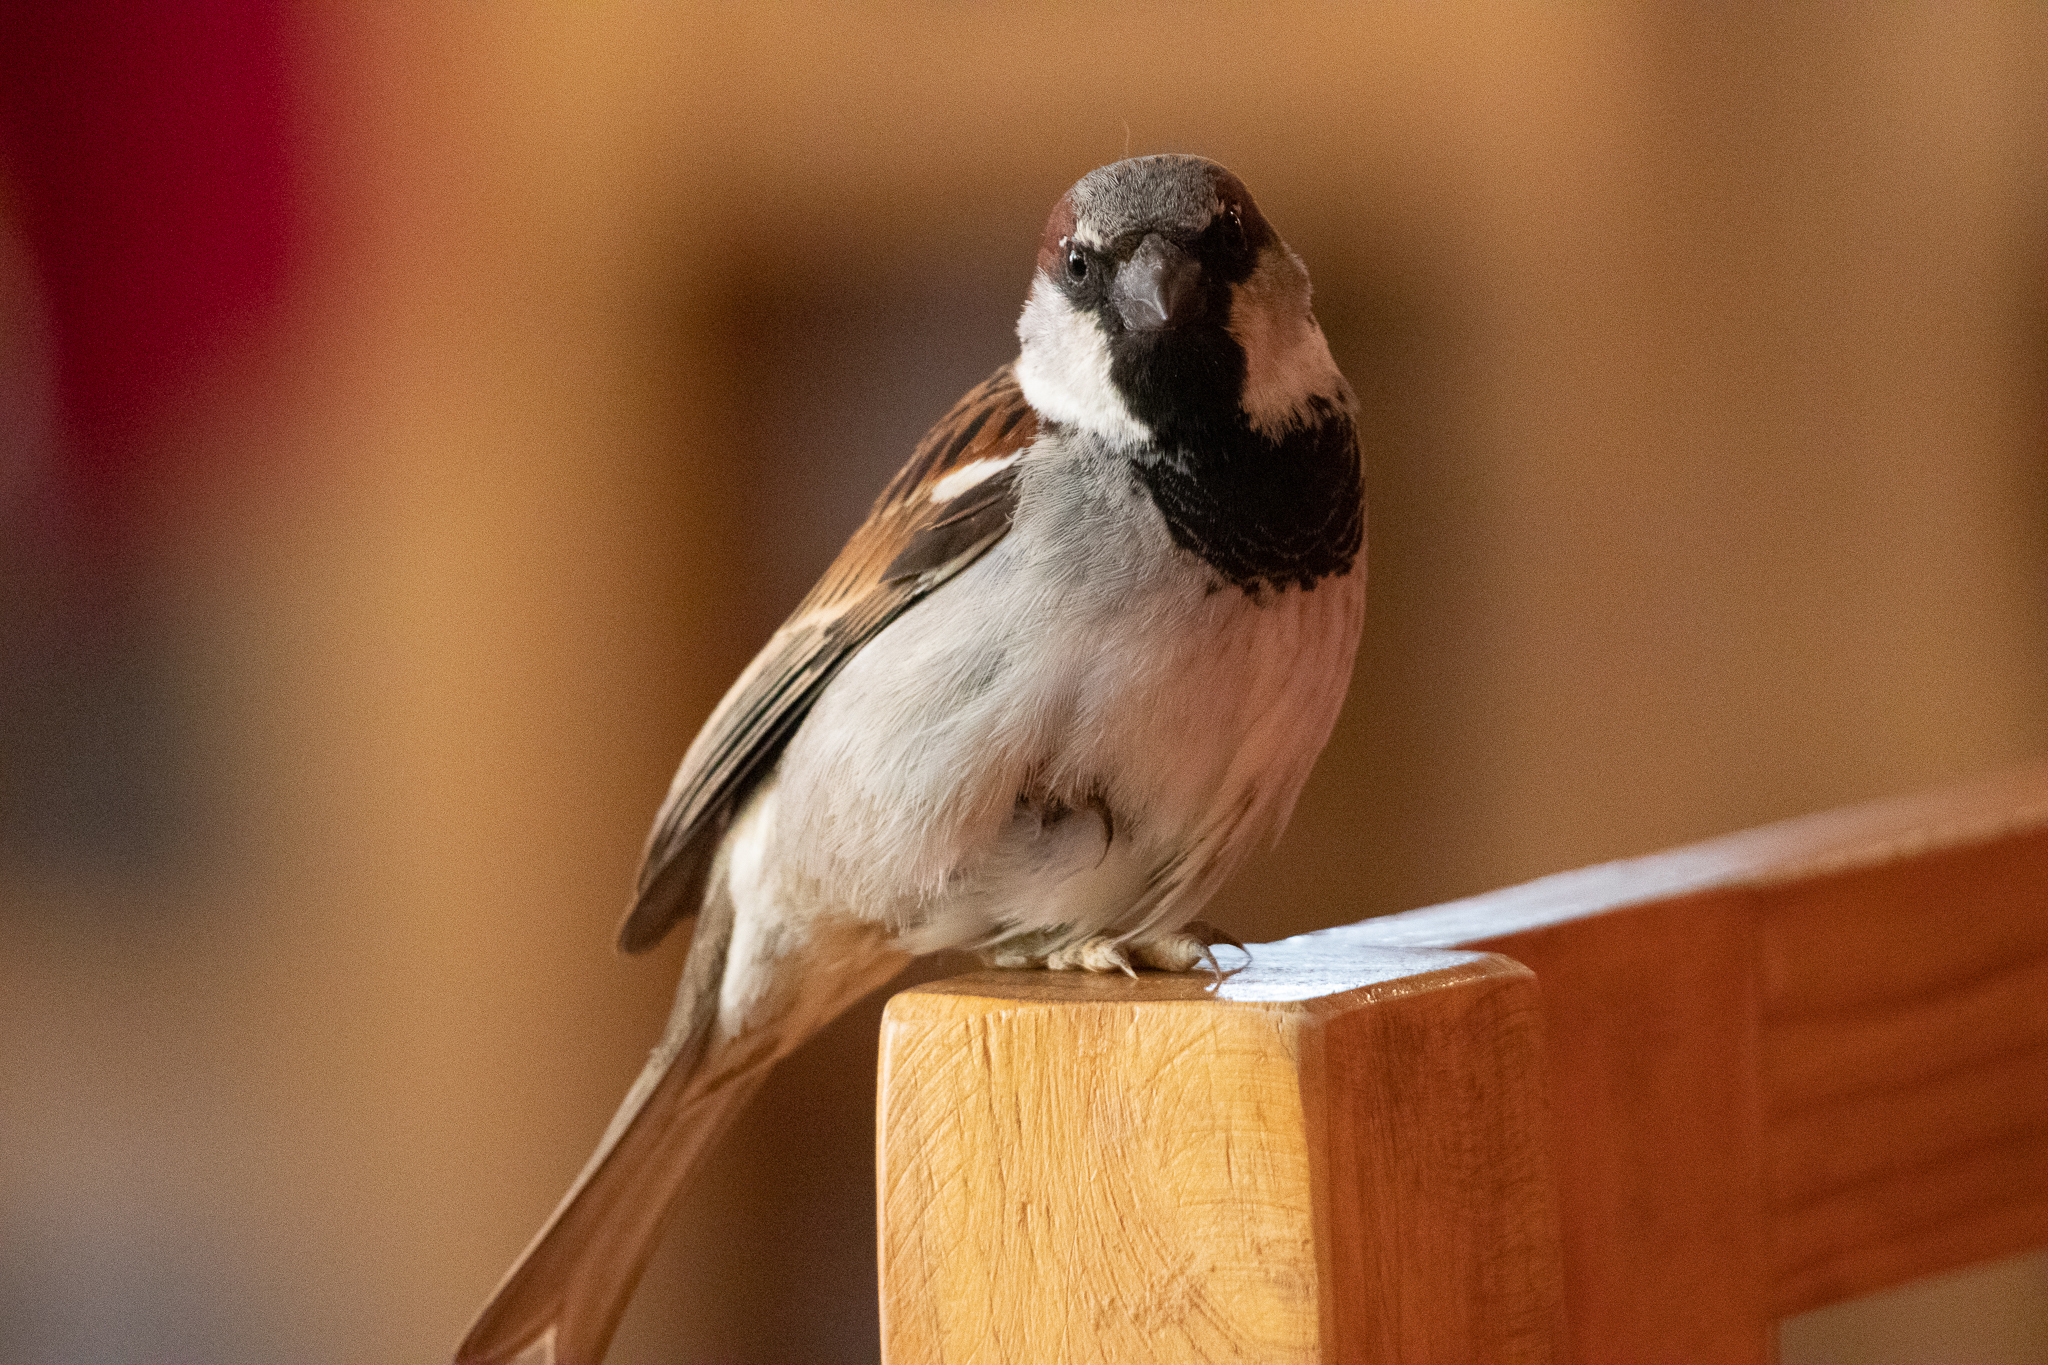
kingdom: Animalia
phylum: Chordata
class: Aves
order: Passeriformes
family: Passeridae
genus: Passer
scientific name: Passer domesticus
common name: House sparrow
